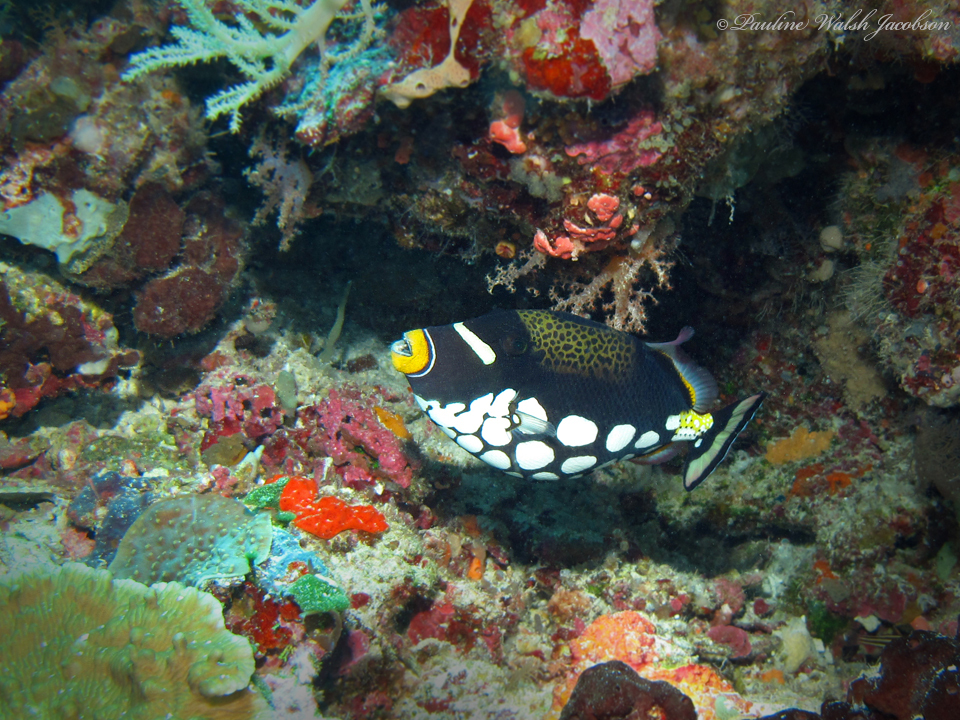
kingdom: Animalia
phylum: Chordata
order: Tetraodontiformes
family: Balistidae
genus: Balistoides
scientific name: Balistoides conspicillum
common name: Clown triggerfish
